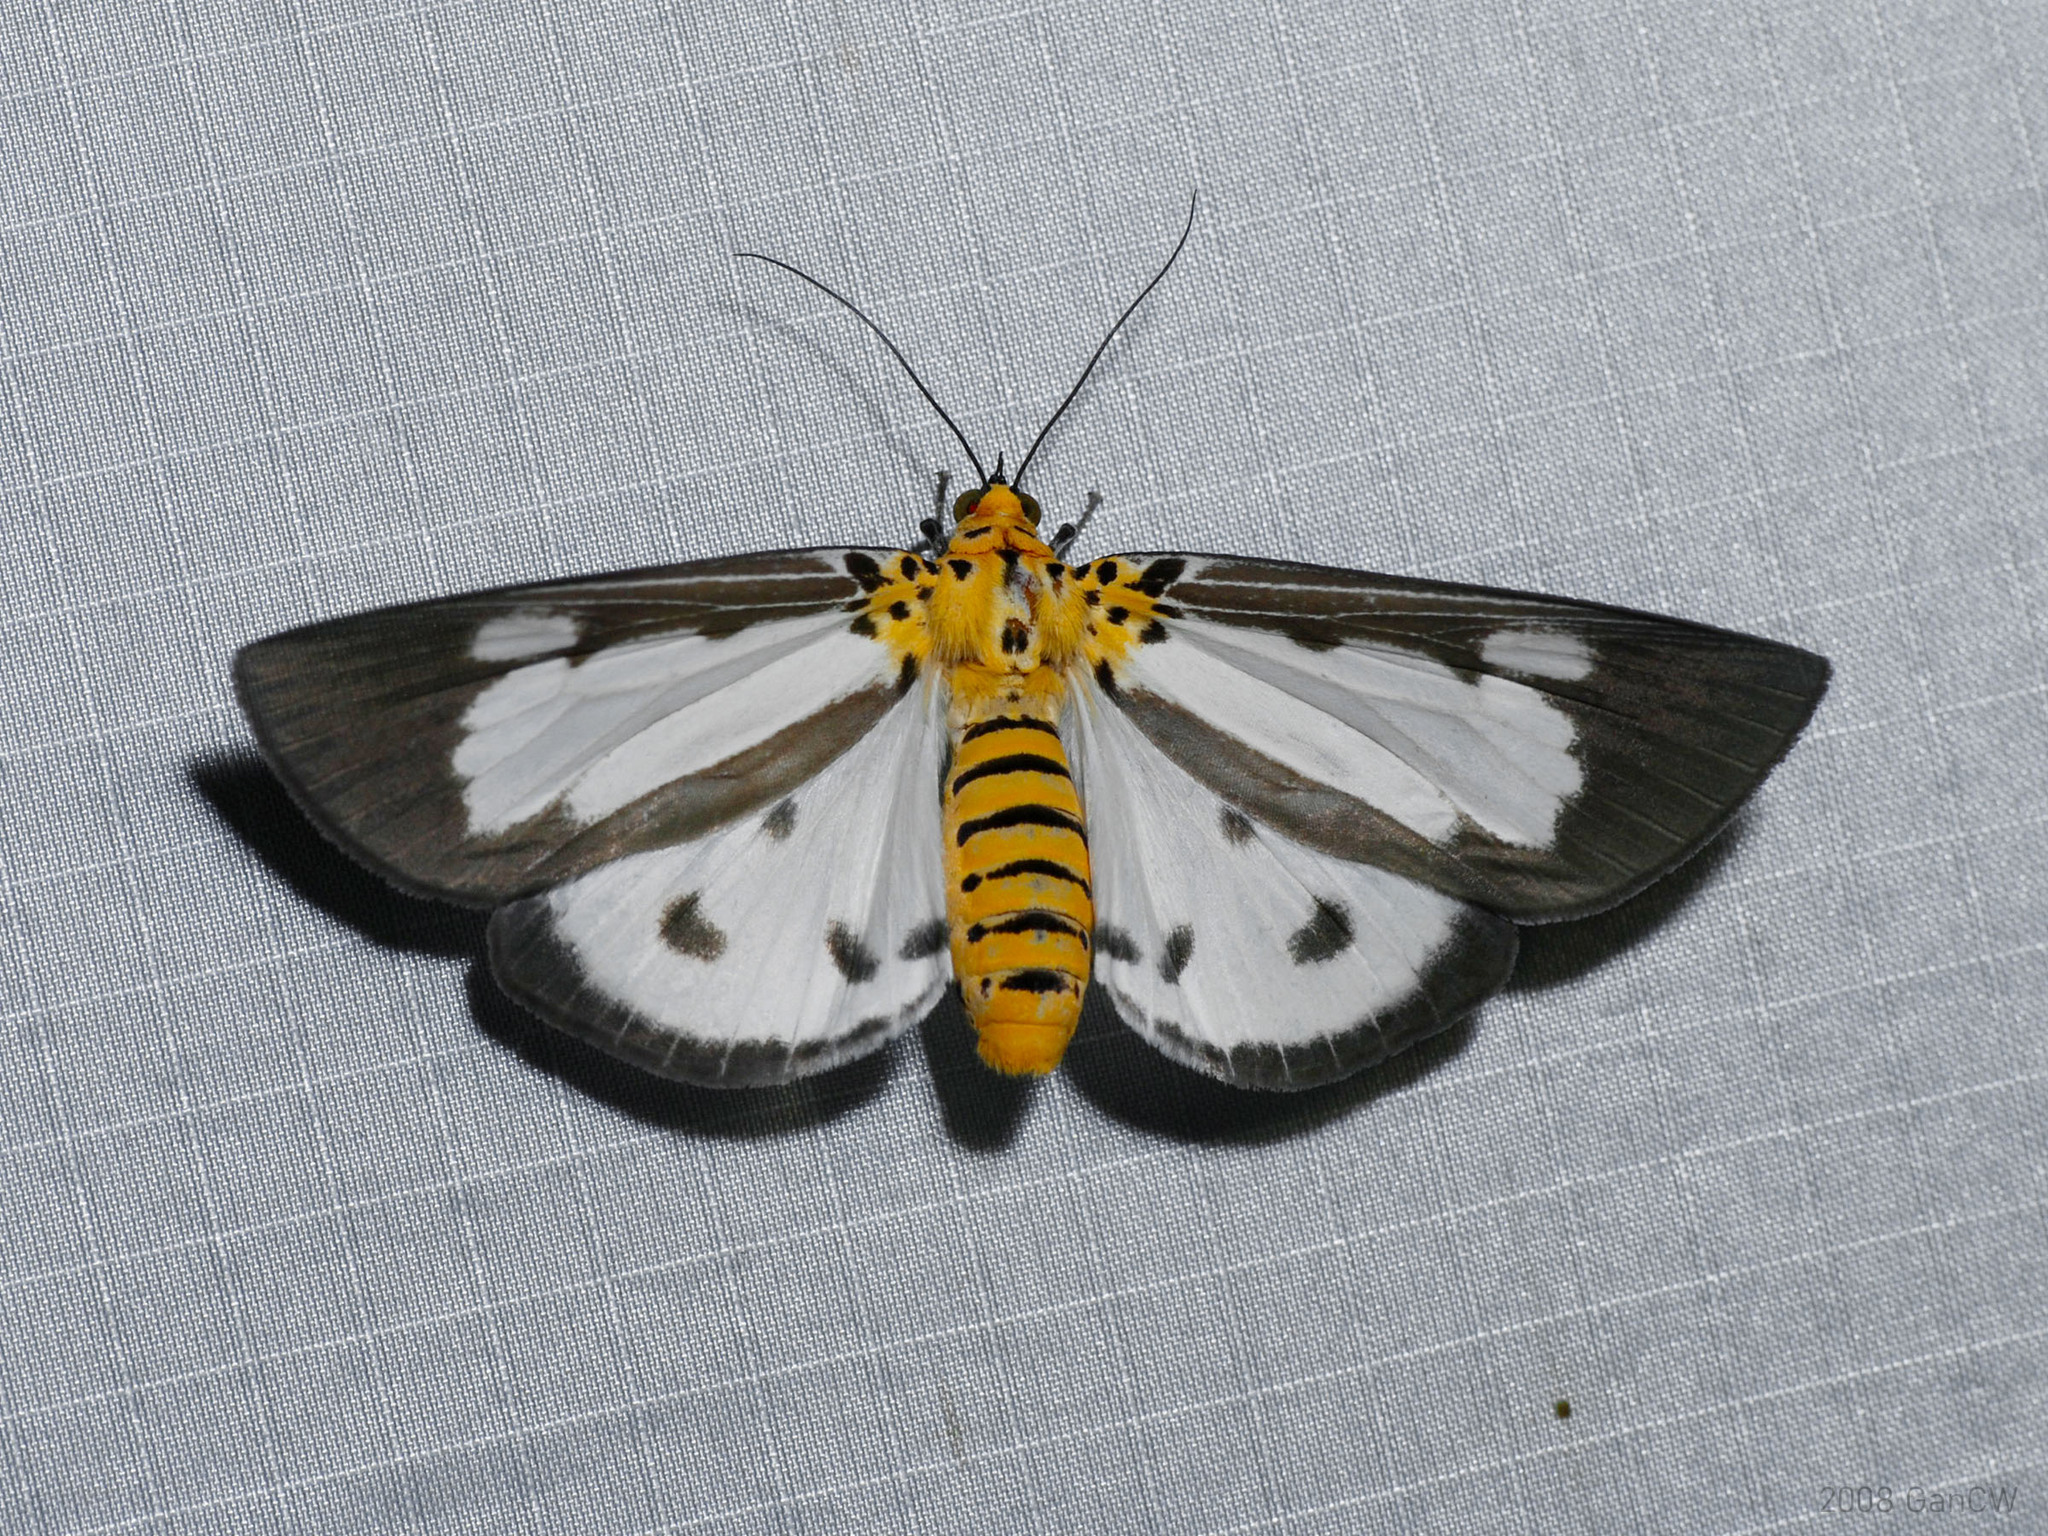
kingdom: Animalia
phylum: Arthropoda
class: Insecta
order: Lepidoptera
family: Erebidae
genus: Asota
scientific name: Asota plana
